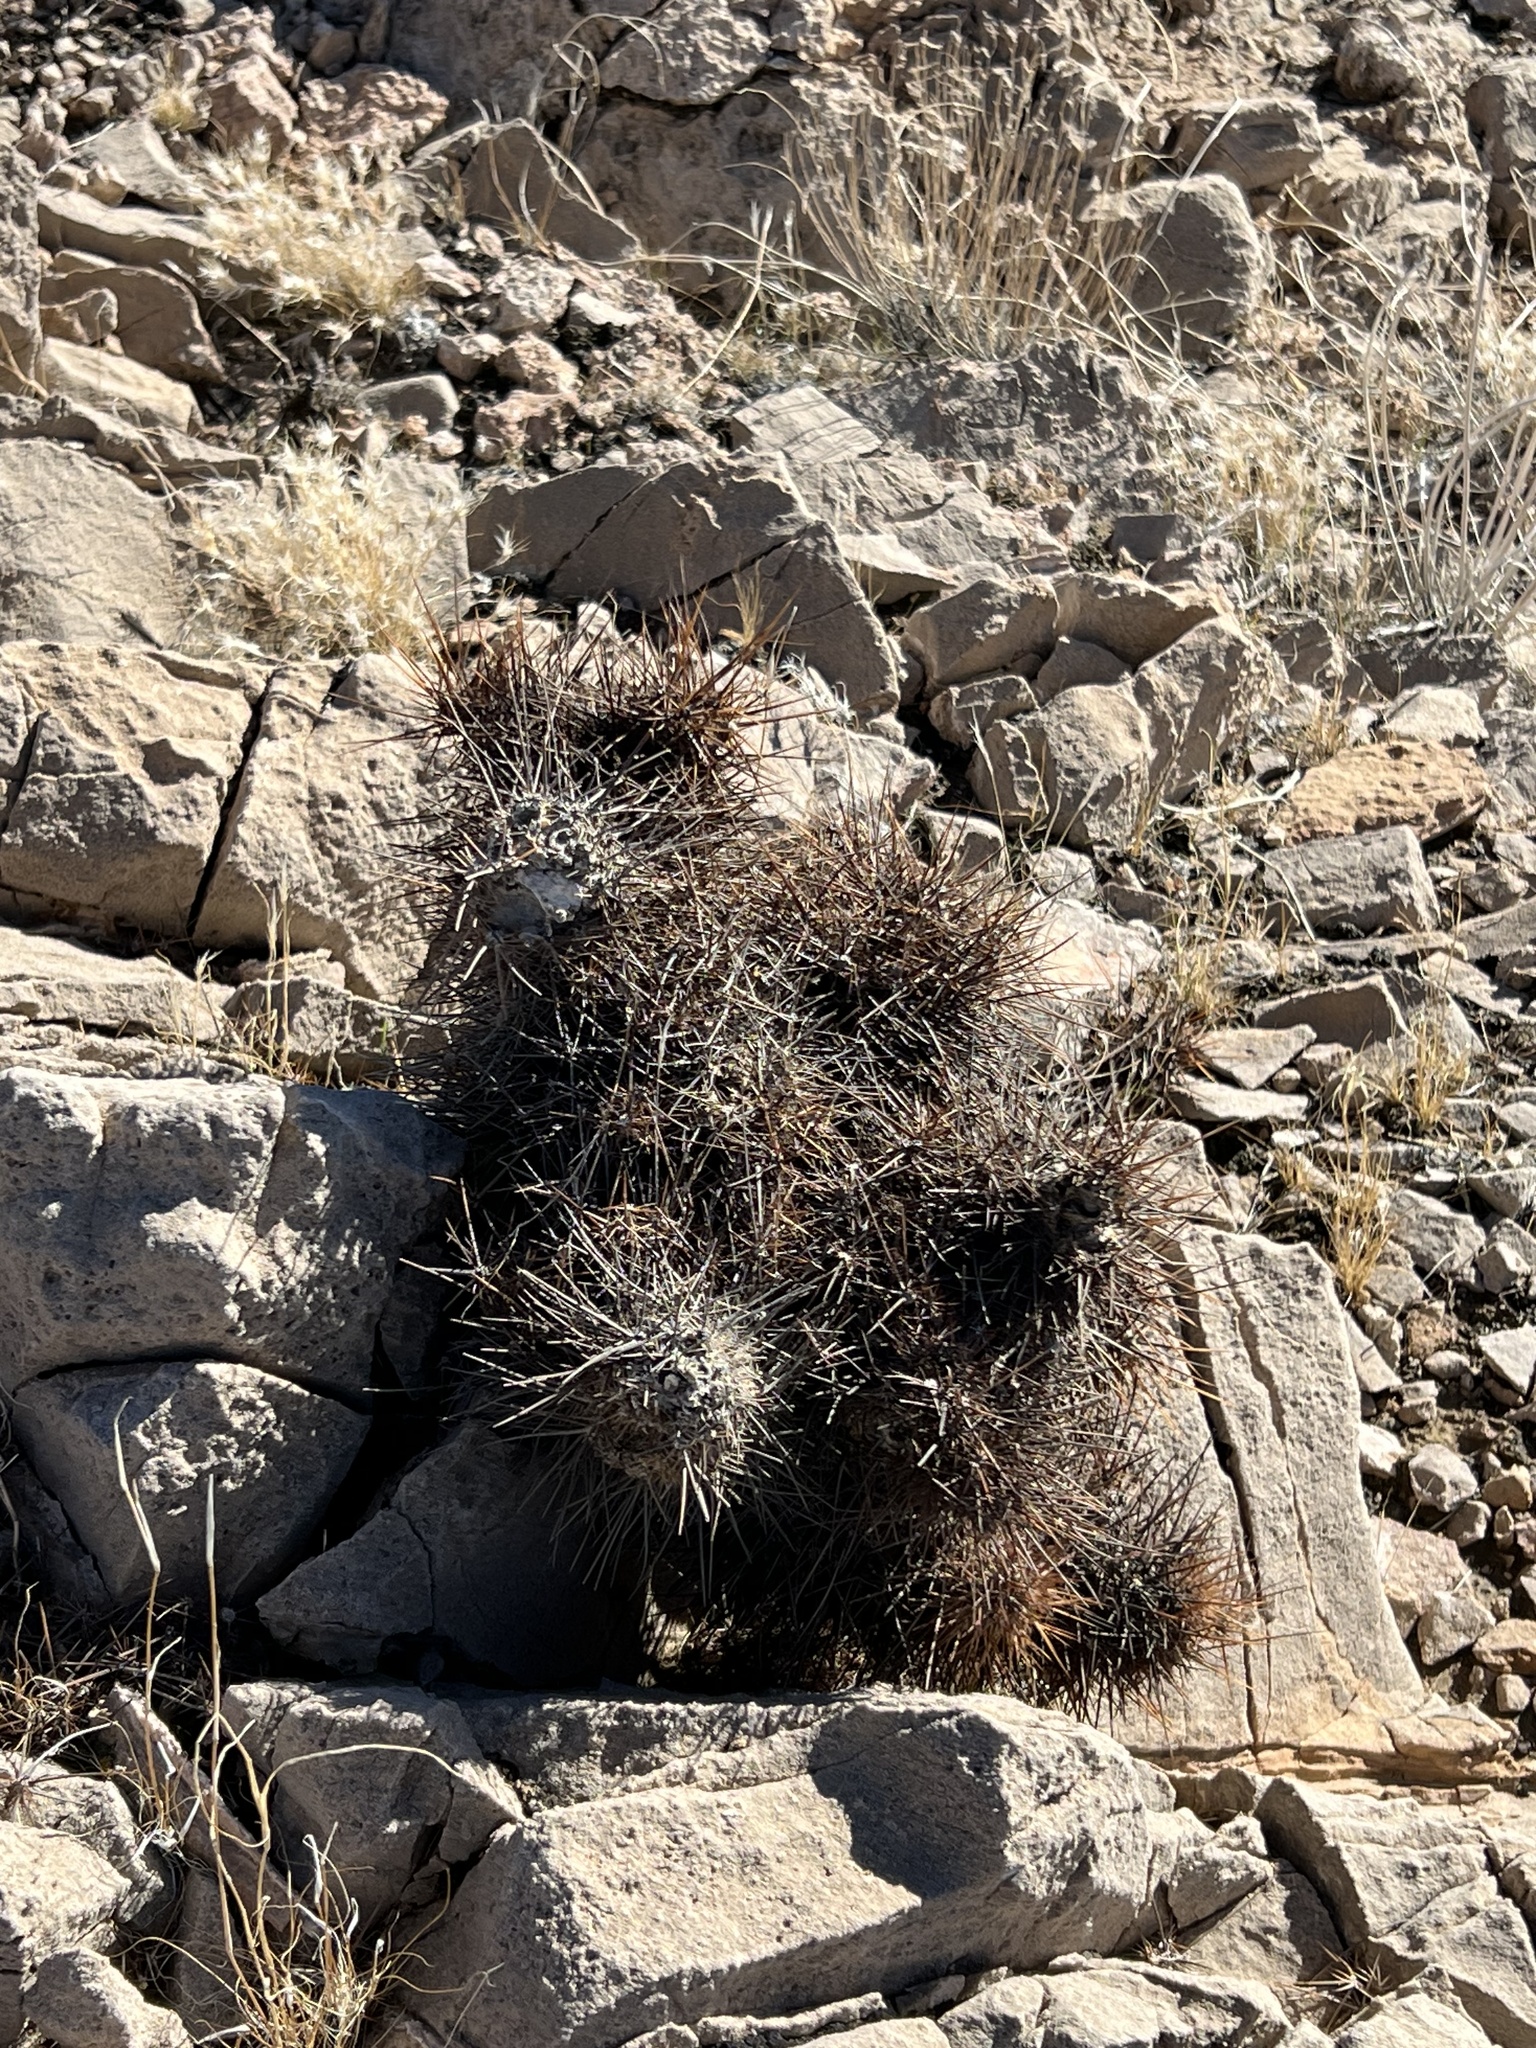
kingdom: Plantae
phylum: Tracheophyta
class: Magnoliopsida
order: Caryophyllales
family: Cactaceae
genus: Echinocereus
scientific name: Echinocereus engelmannii
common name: Engelmann's hedgehog cactus
